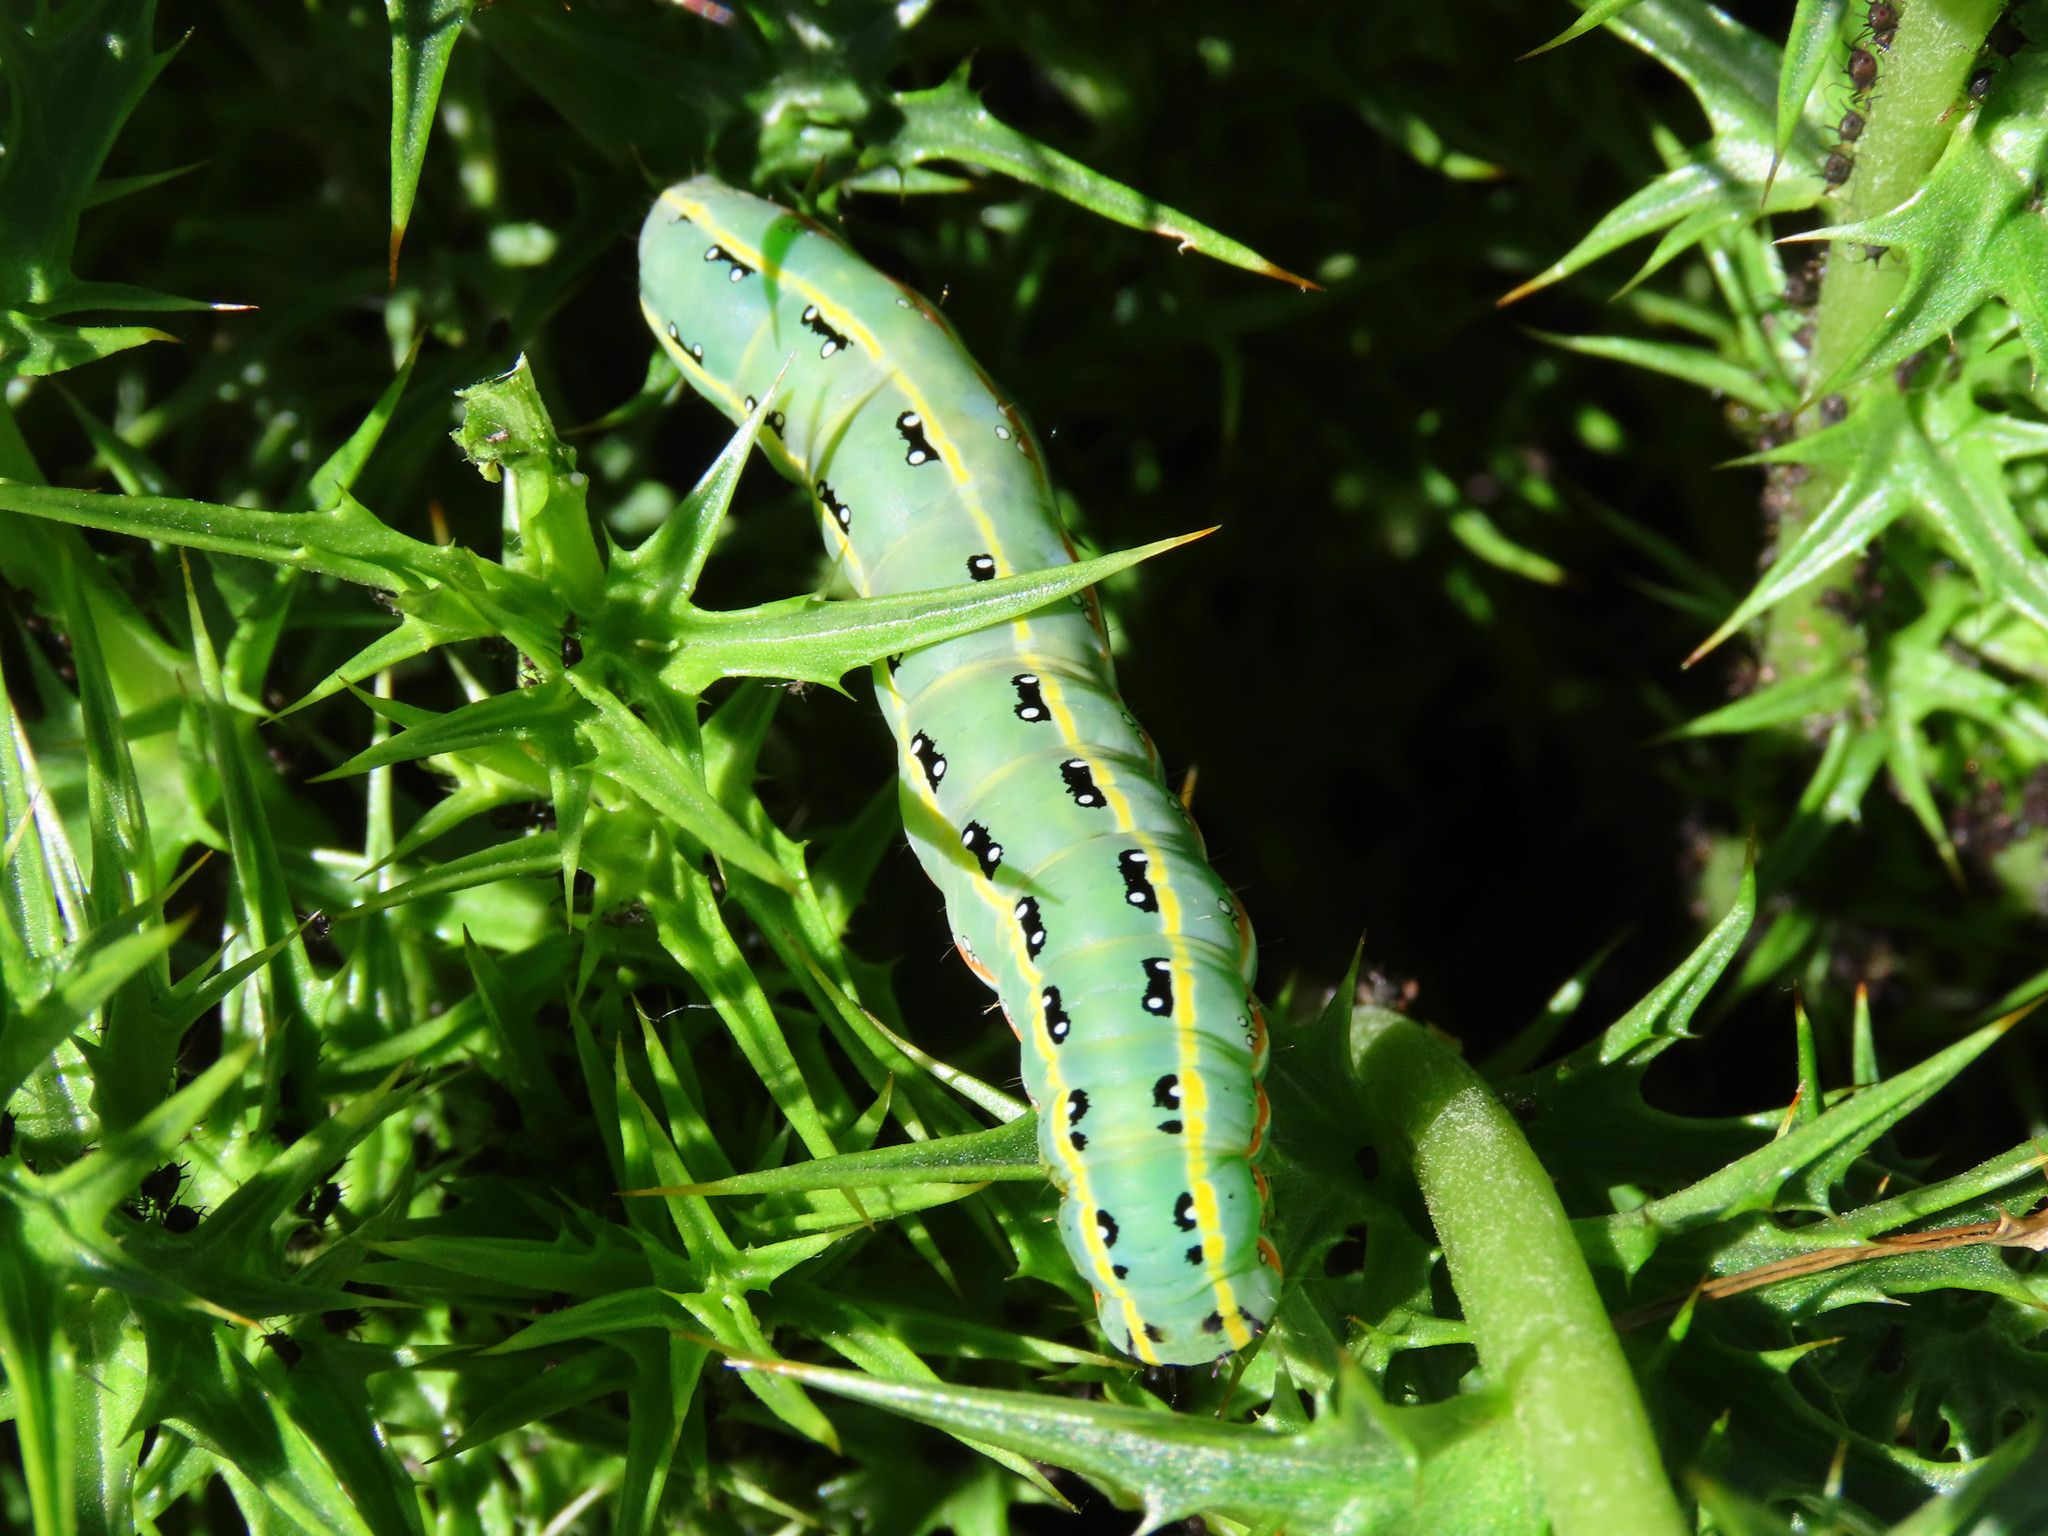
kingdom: Animalia
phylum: Arthropoda
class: Insecta
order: Lepidoptera
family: Noctuidae
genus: Xylena
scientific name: Xylena exsoleta
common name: Sword-grass
